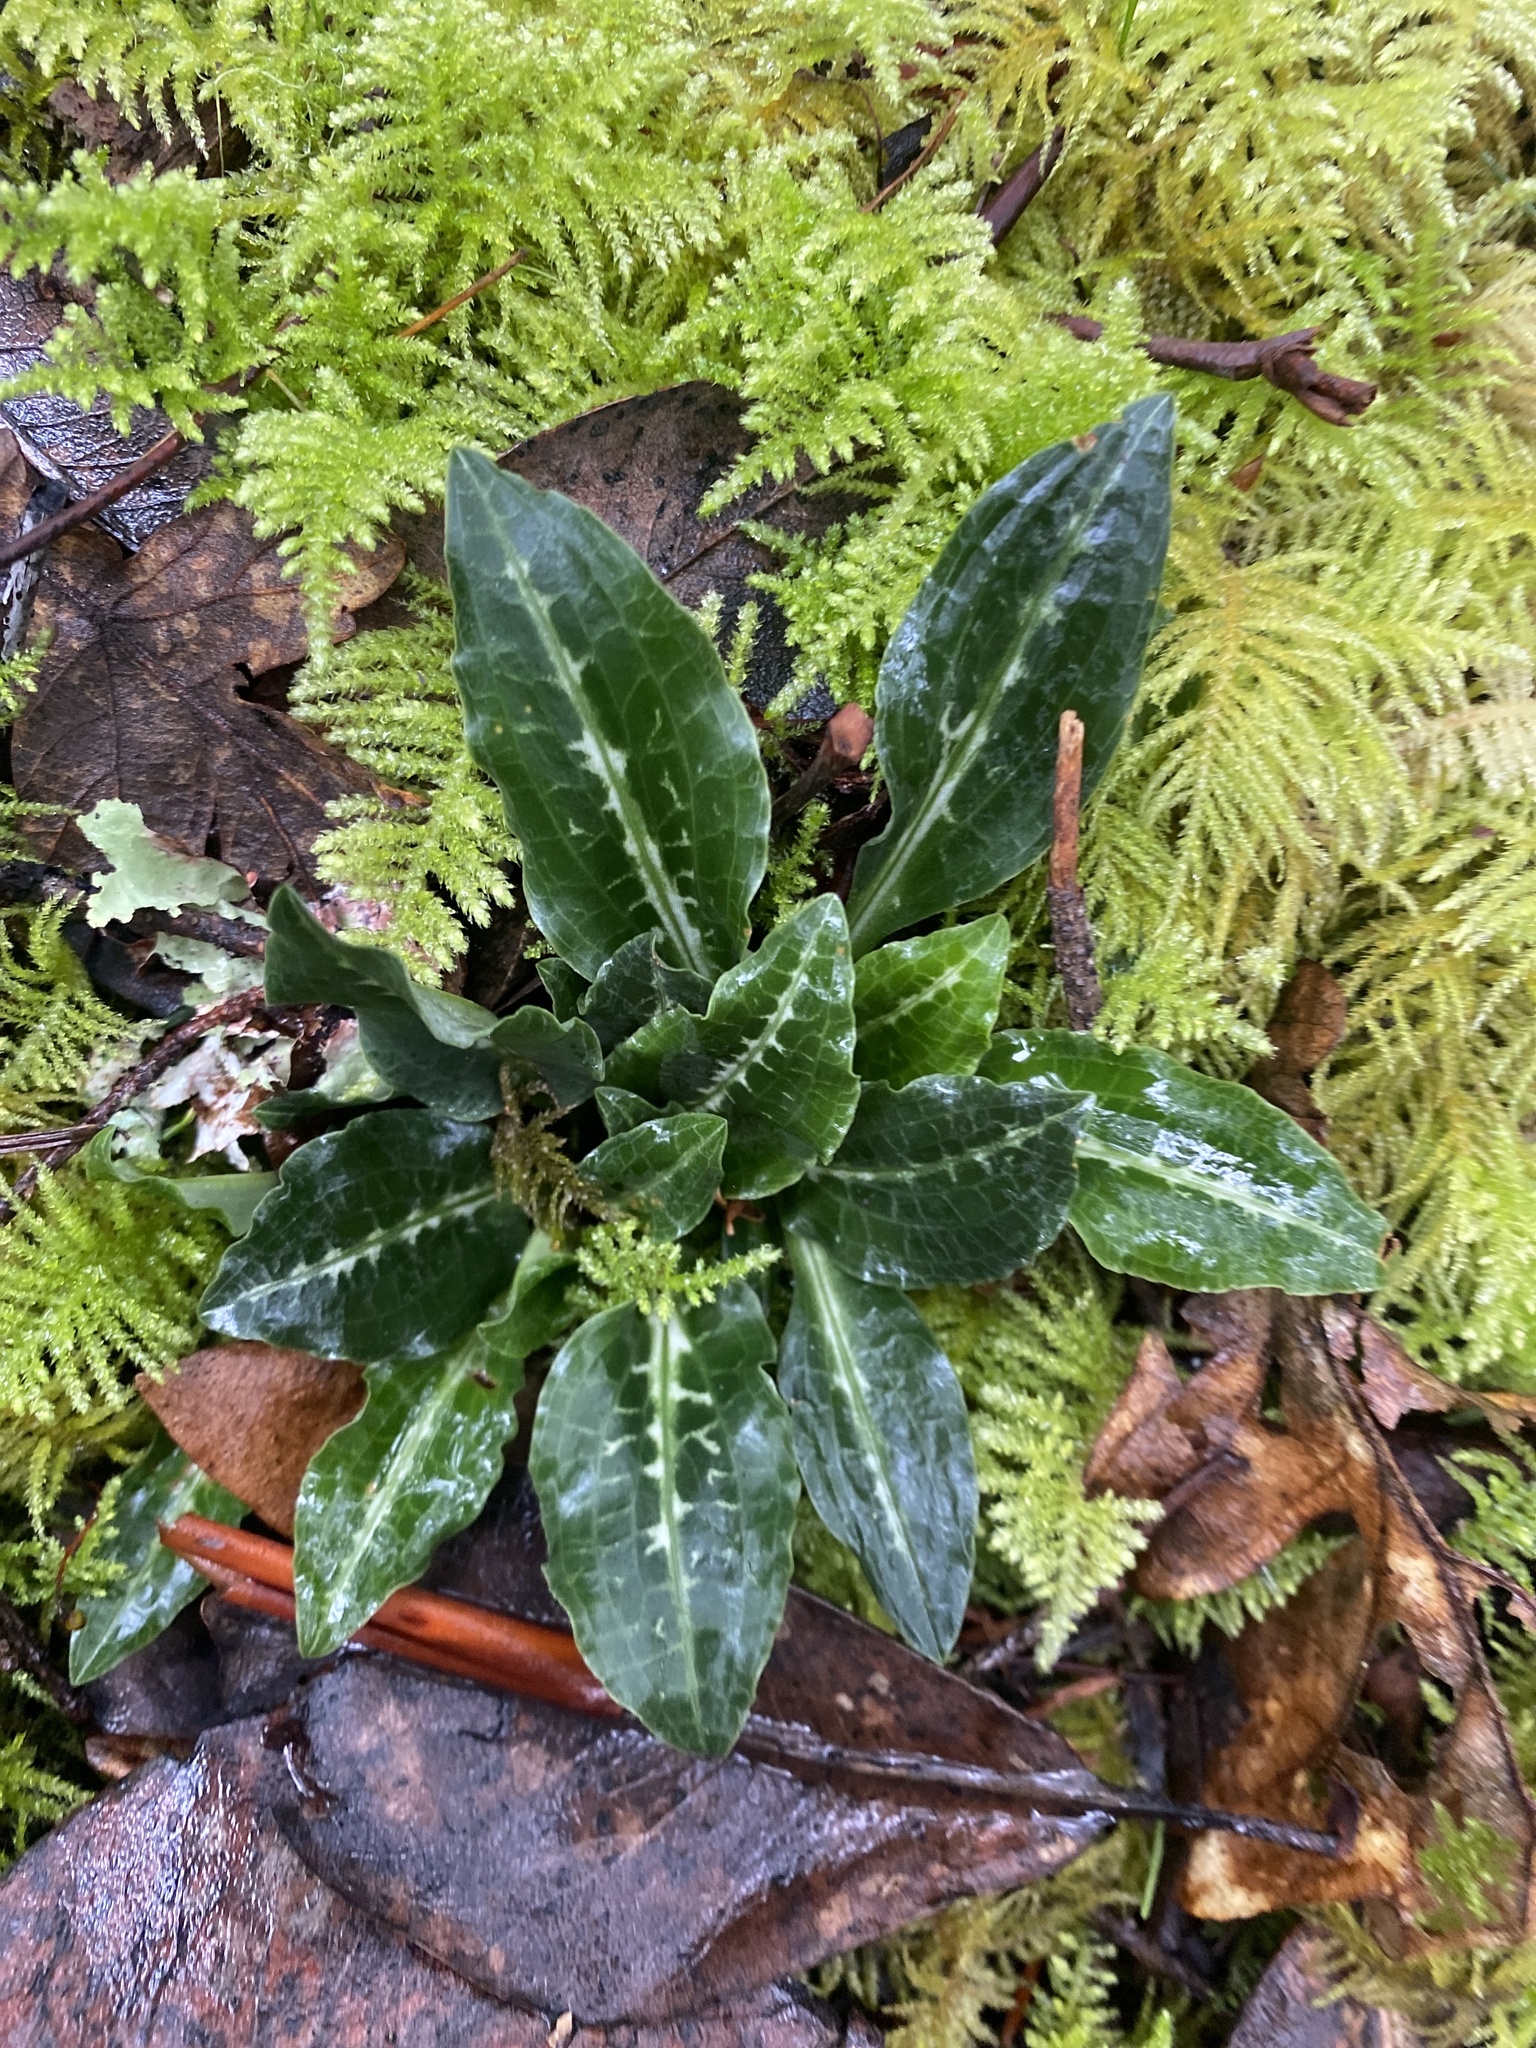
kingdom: Plantae
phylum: Tracheophyta
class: Liliopsida
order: Asparagales
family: Orchidaceae
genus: Goodyera
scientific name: Goodyera oblongifolia
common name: Giant rattlesnake-plantain
